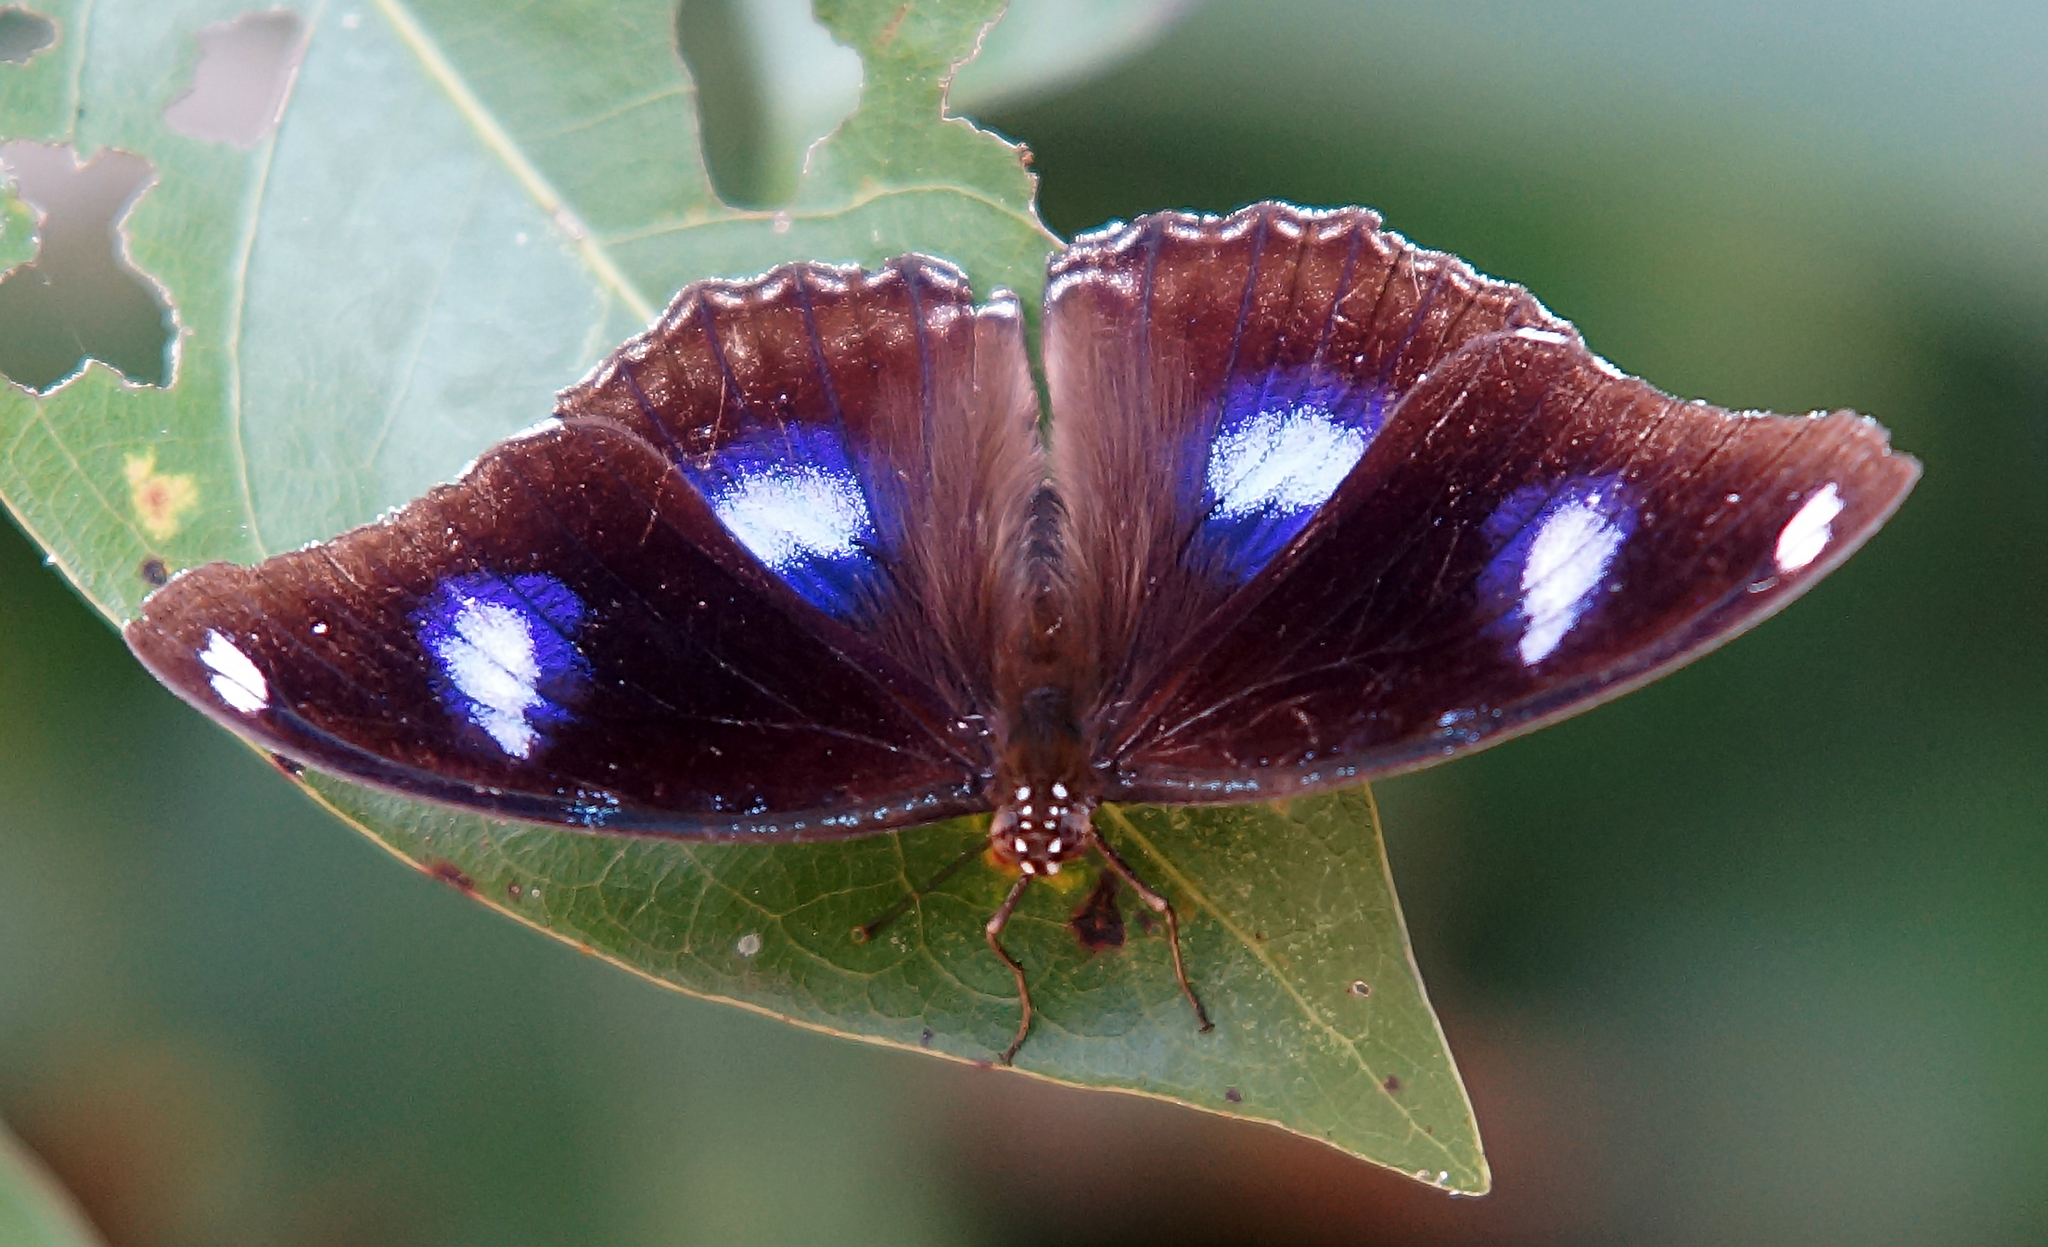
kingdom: Animalia
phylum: Arthropoda
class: Insecta
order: Lepidoptera
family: Nymphalidae
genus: Hypolimnas
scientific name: Hypolimnas bolina
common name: Great eggfly
